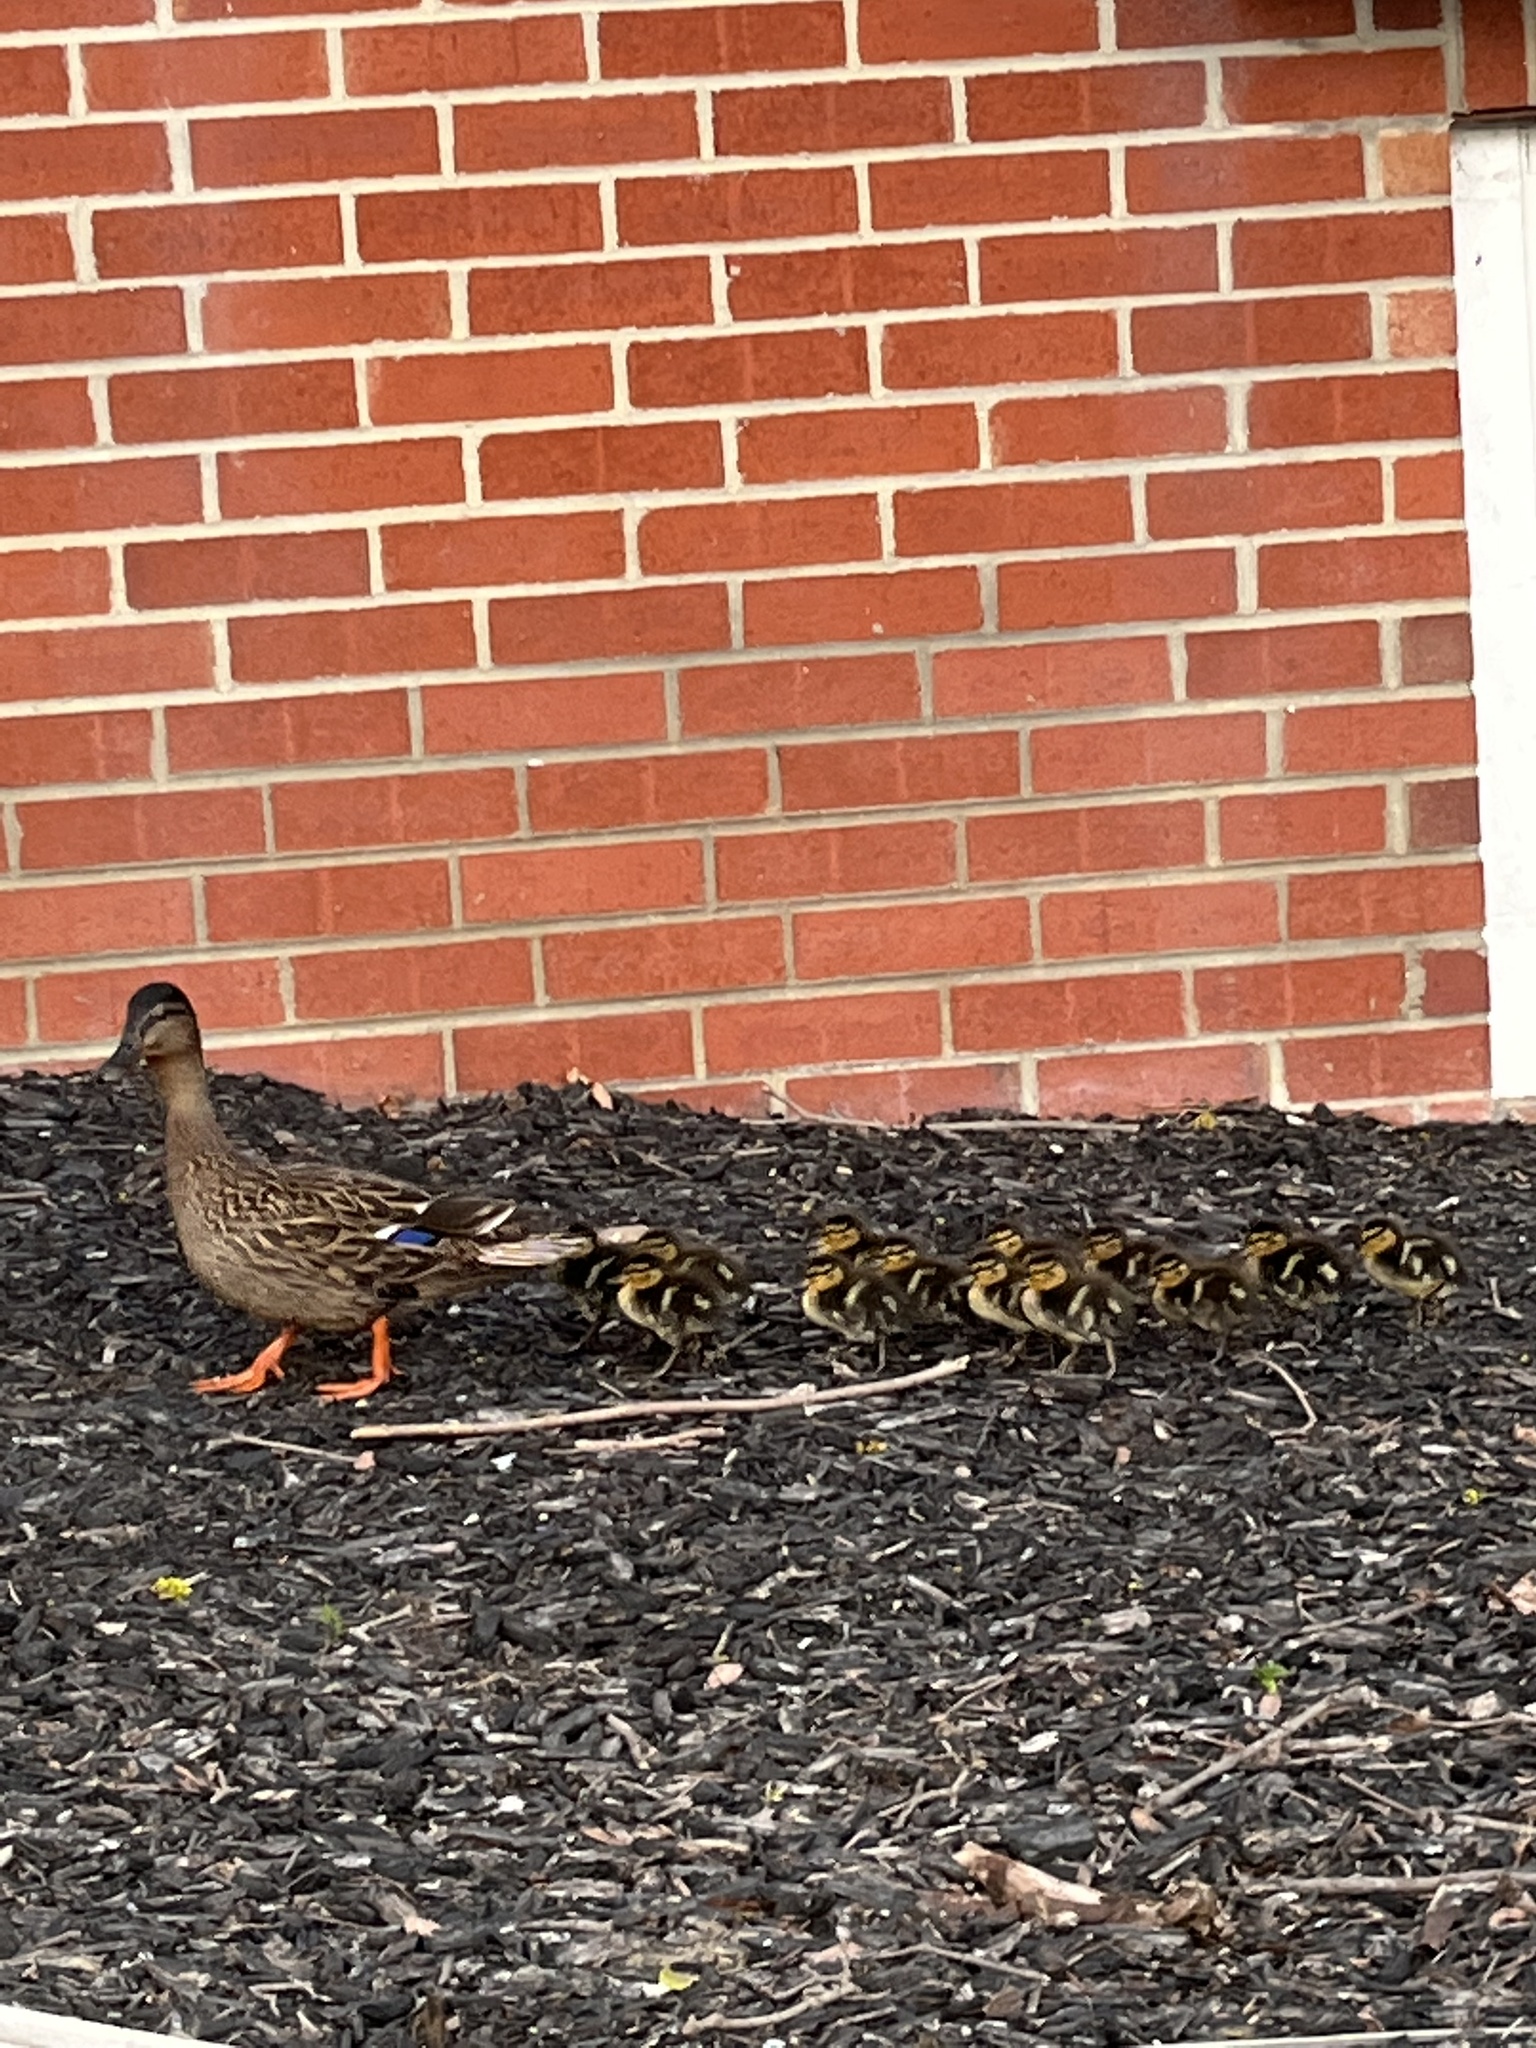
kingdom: Animalia
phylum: Chordata
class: Aves
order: Anseriformes
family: Anatidae
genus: Anas
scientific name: Anas platyrhynchos
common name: Mallard
